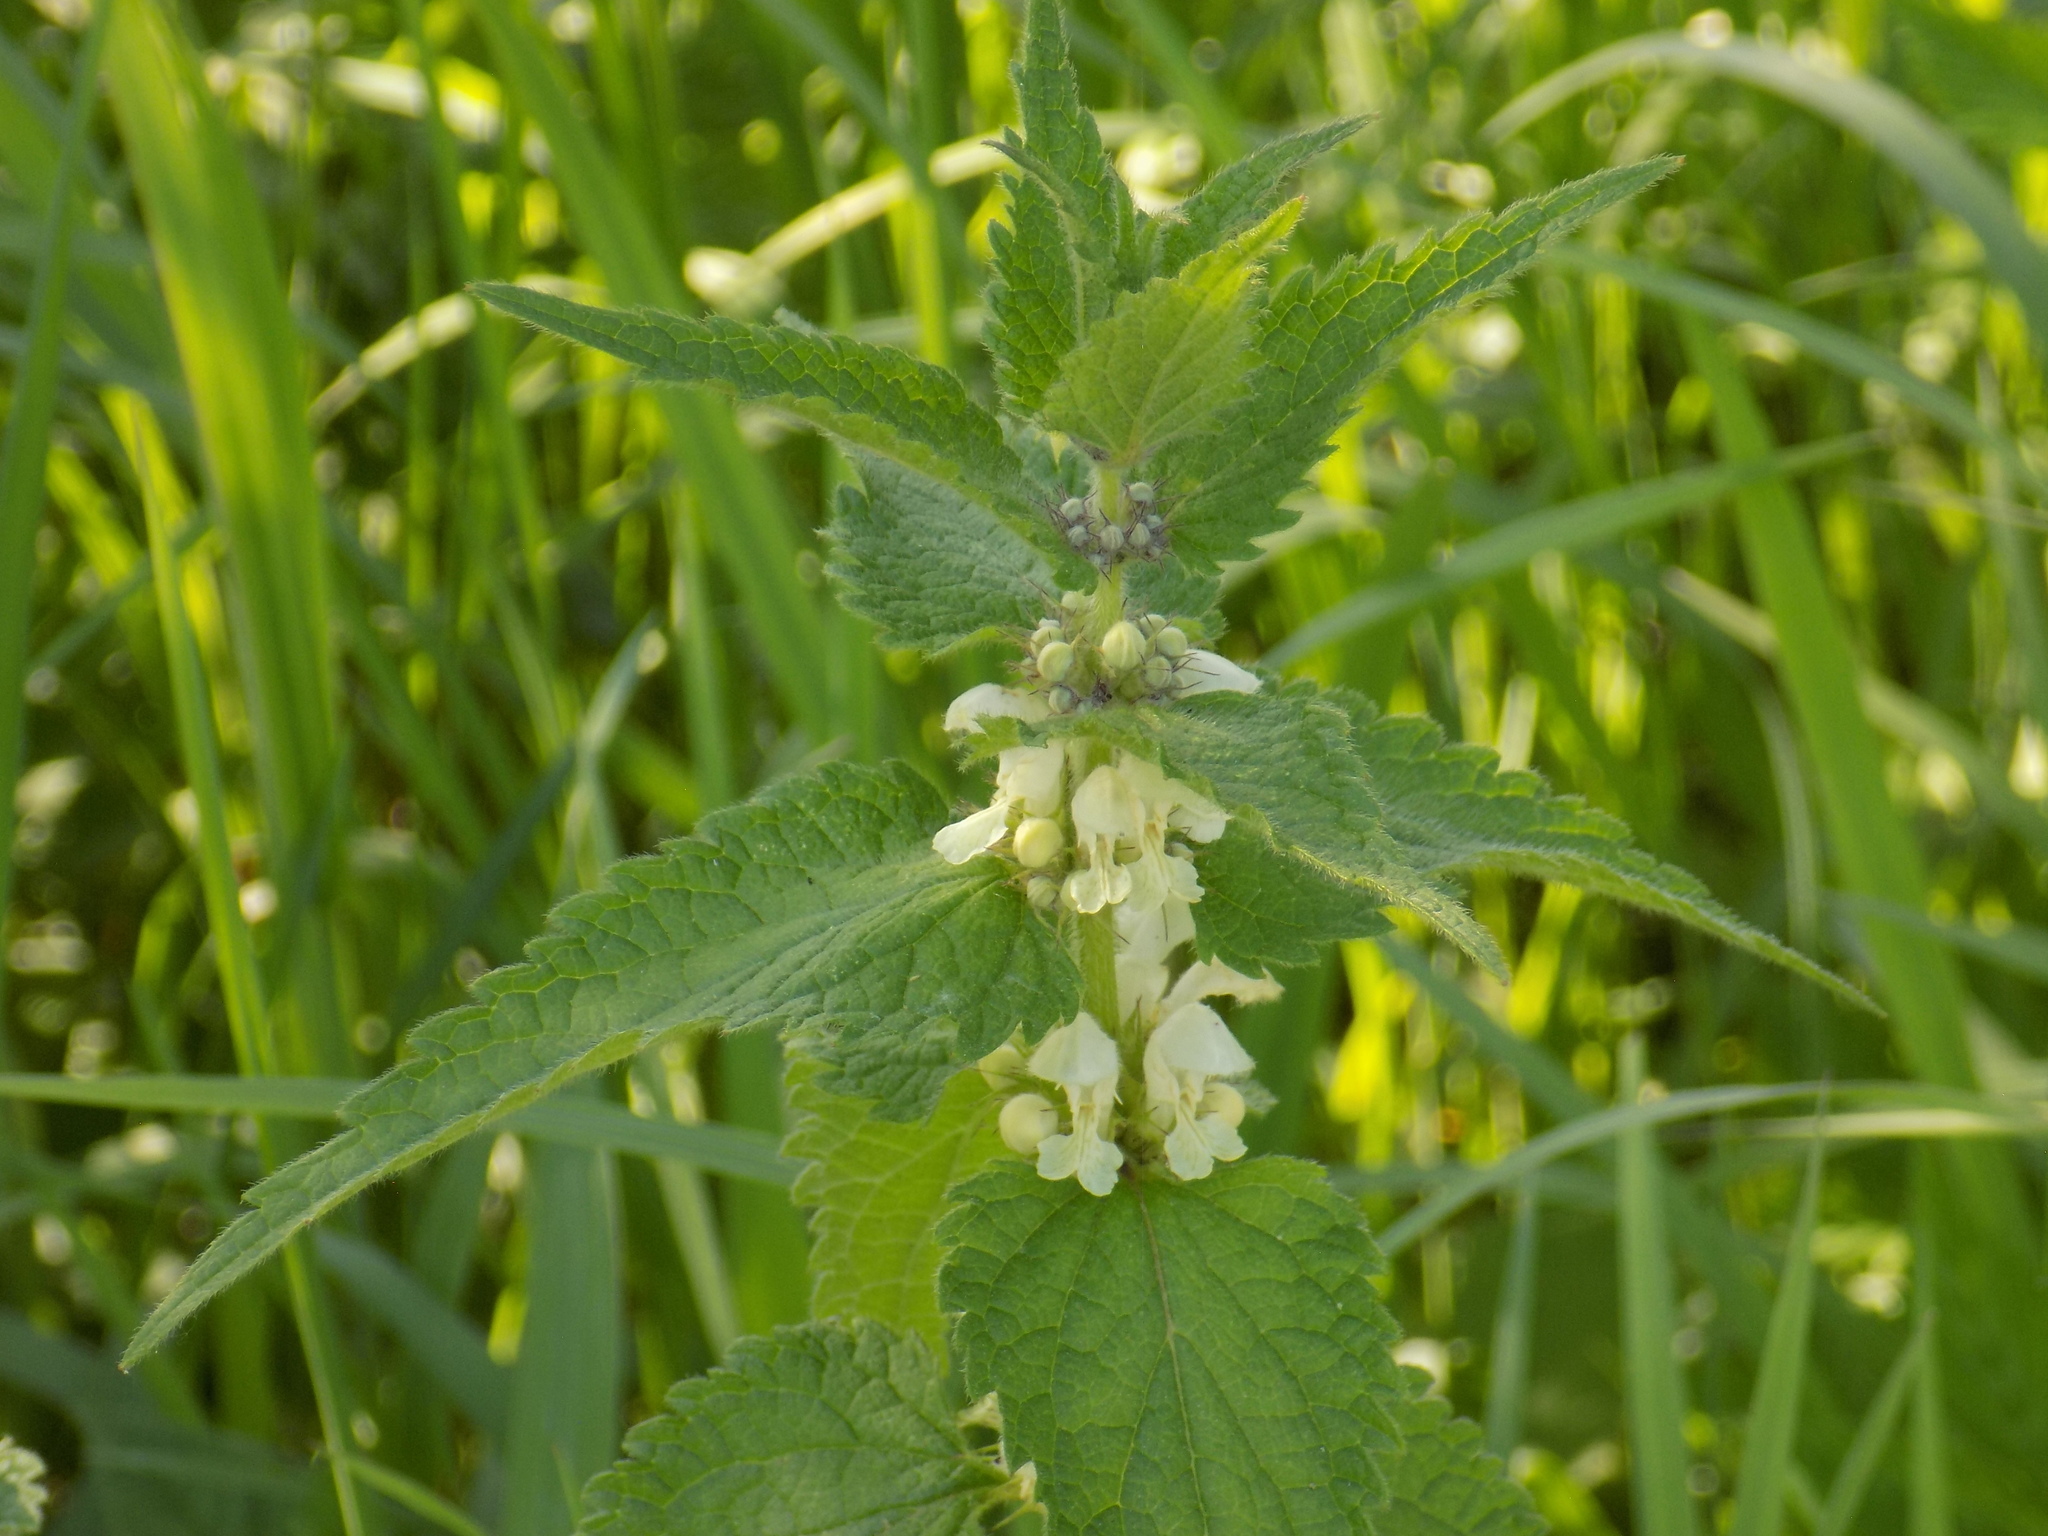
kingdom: Plantae
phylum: Tracheophyta
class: Magnoliopsida
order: Lamiales
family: Lamiaceae
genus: Lamium
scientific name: Lamium album
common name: White dead-nettle
